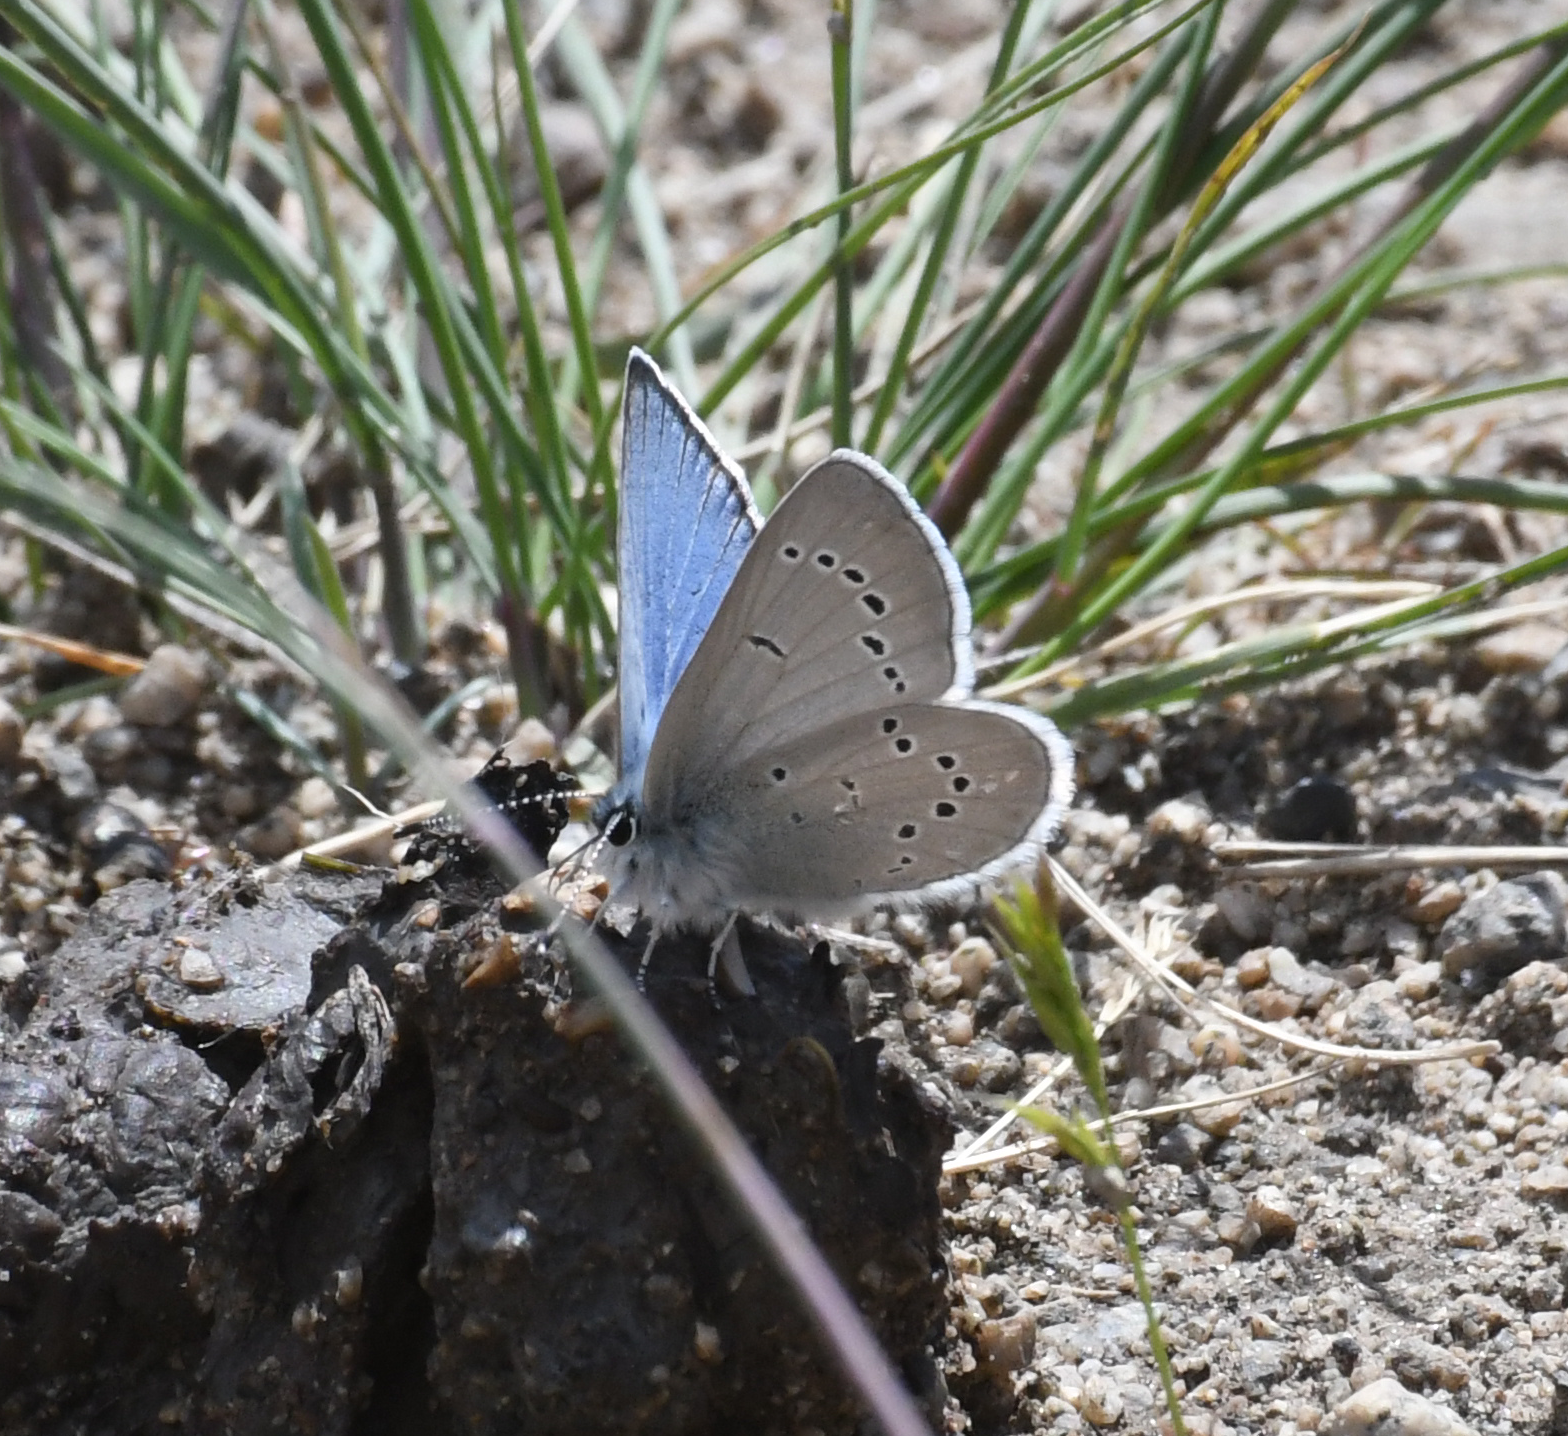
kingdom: Animalia
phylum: Arthropoda
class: Insecta
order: Lepidoptera
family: Lycaenidae
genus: Glaucopsyche
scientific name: Glaucopsyche lygdamus
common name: Silvery blue
